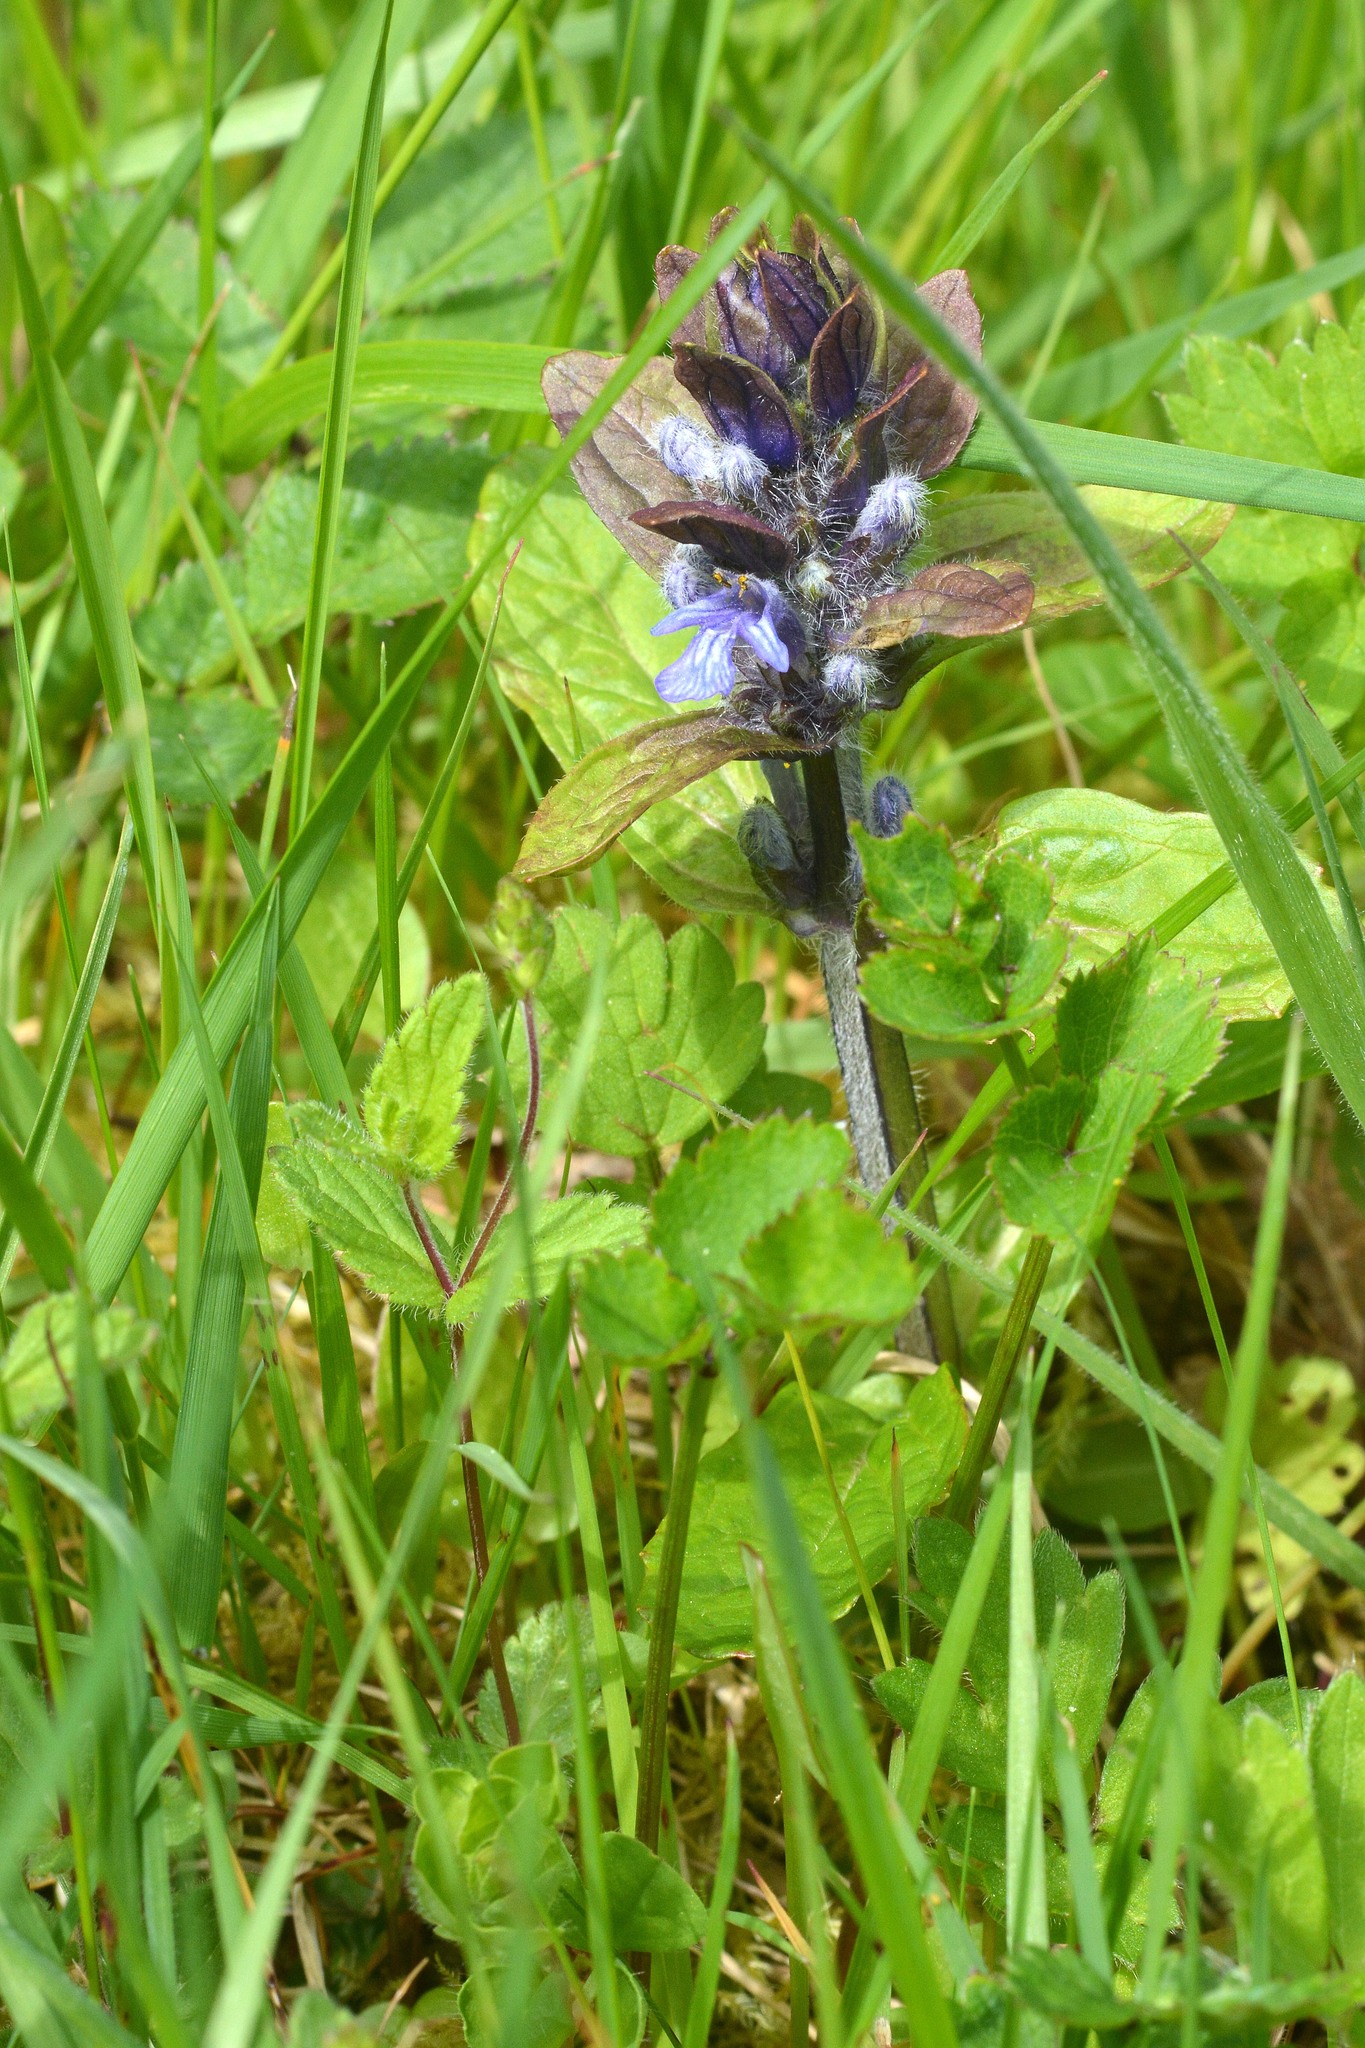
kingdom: Plantae
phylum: Tracheophyta
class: Magnoliopsida
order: Lamiales
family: Lamiaceae
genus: Ajuga
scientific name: Ajuga reptans
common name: Bugle
